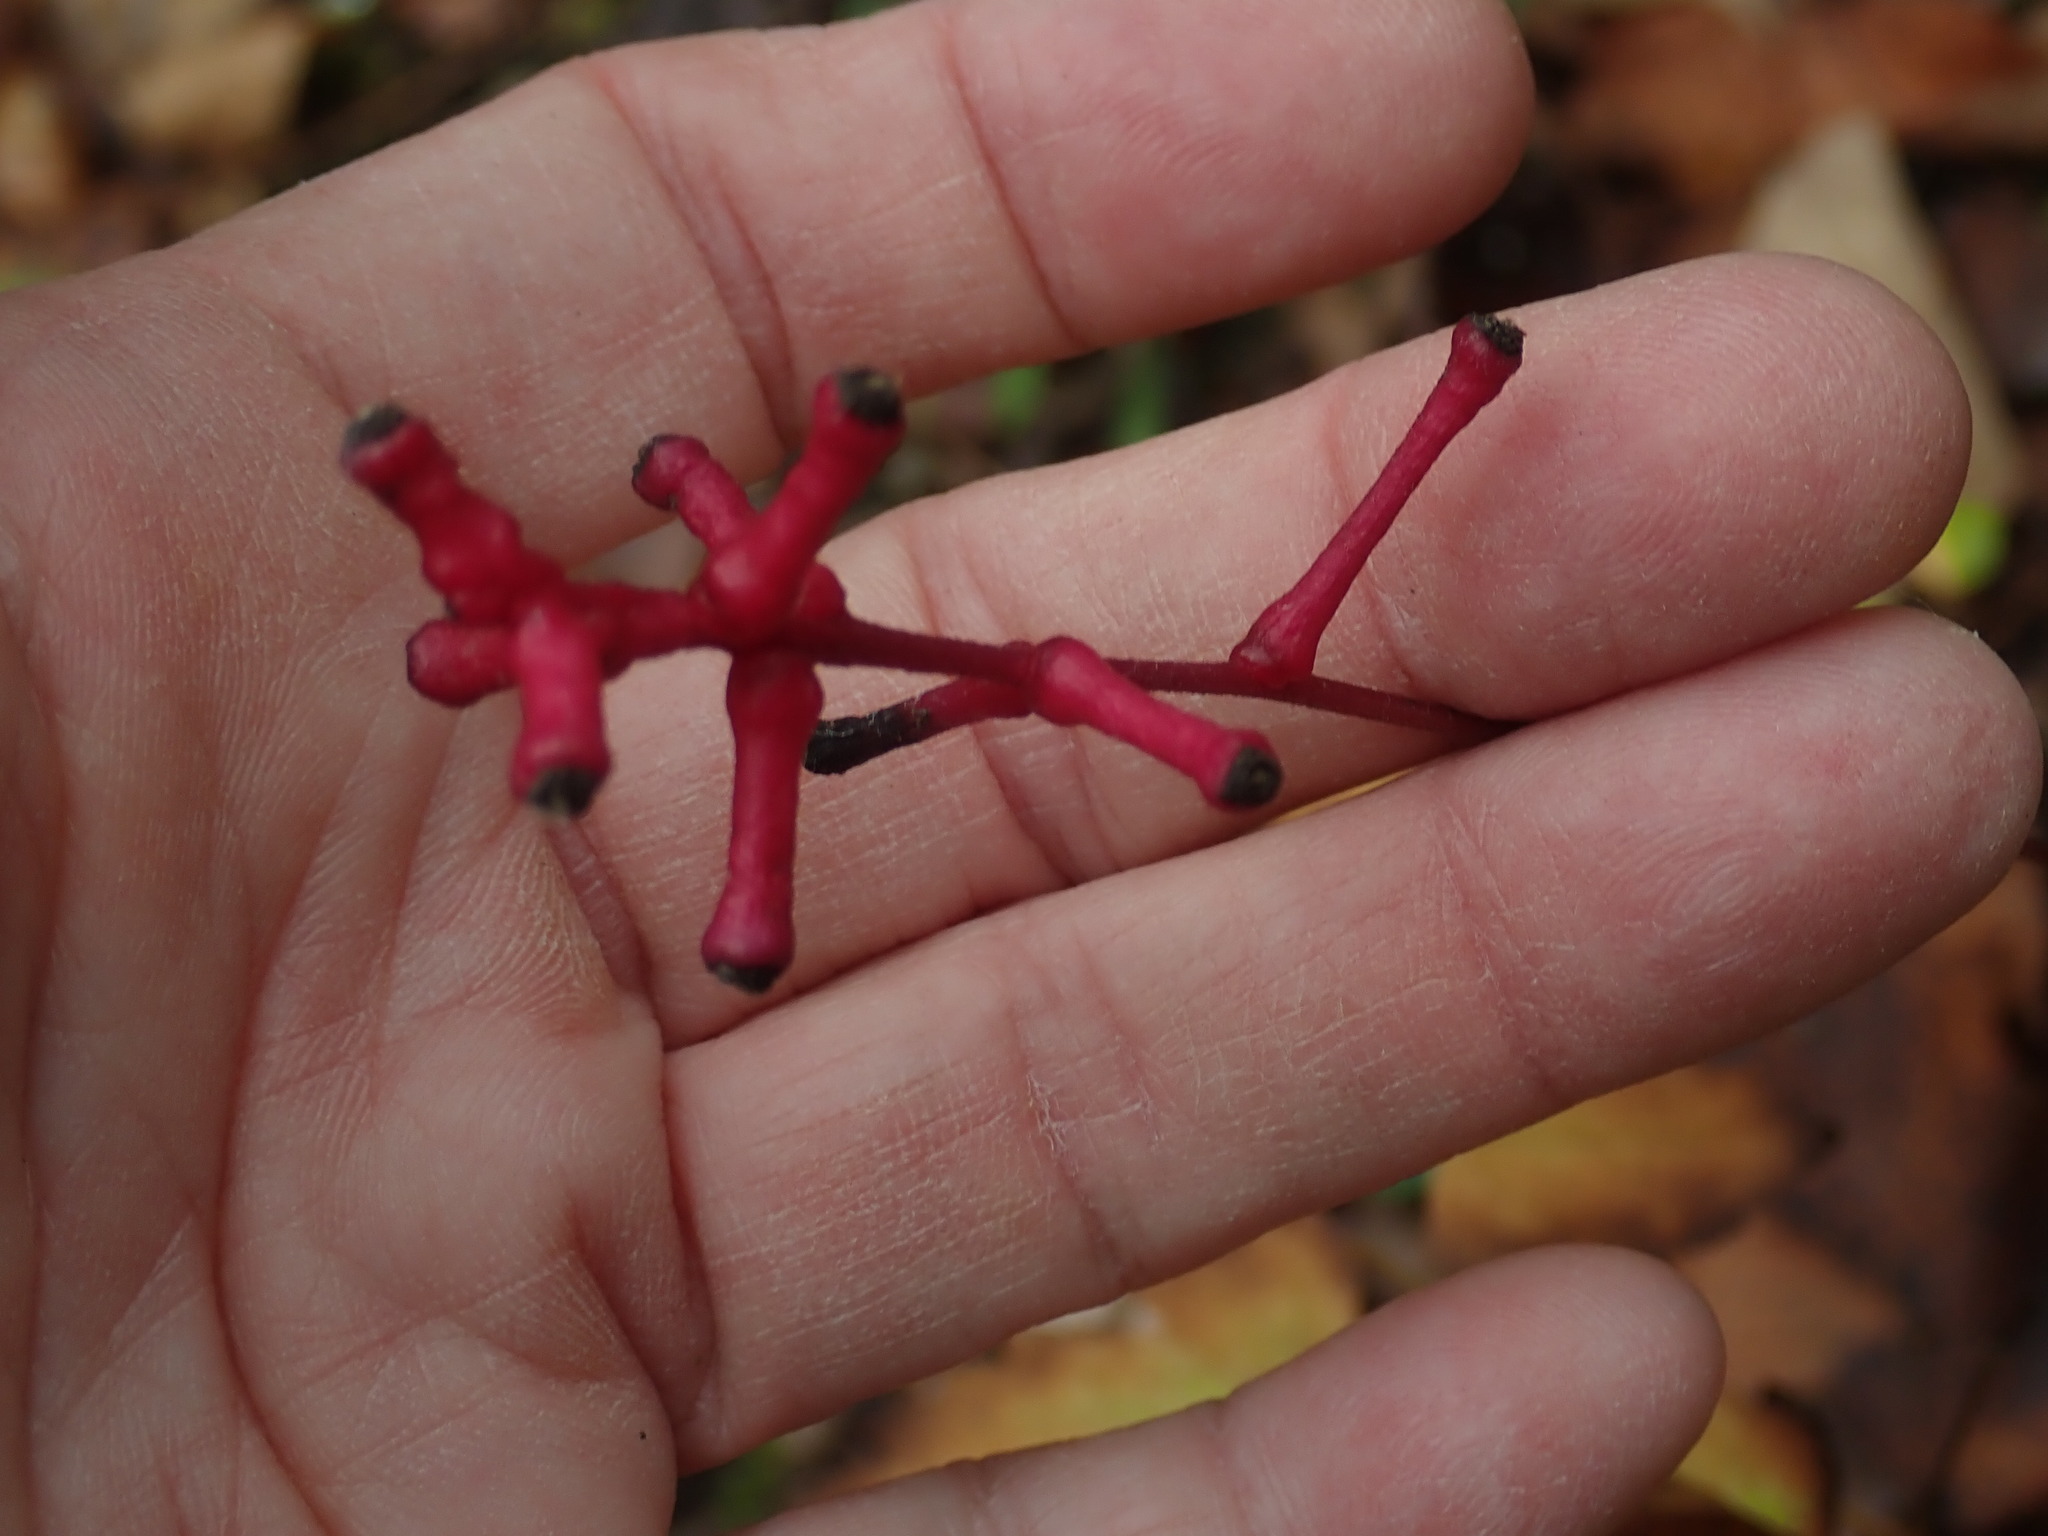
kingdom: Plantae
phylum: Tracheophyta
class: Magnoliopsida
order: Ranunculales
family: Ranunculaceae
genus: Actaea
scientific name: Actaea pachypoda
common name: Doll's-eyes
